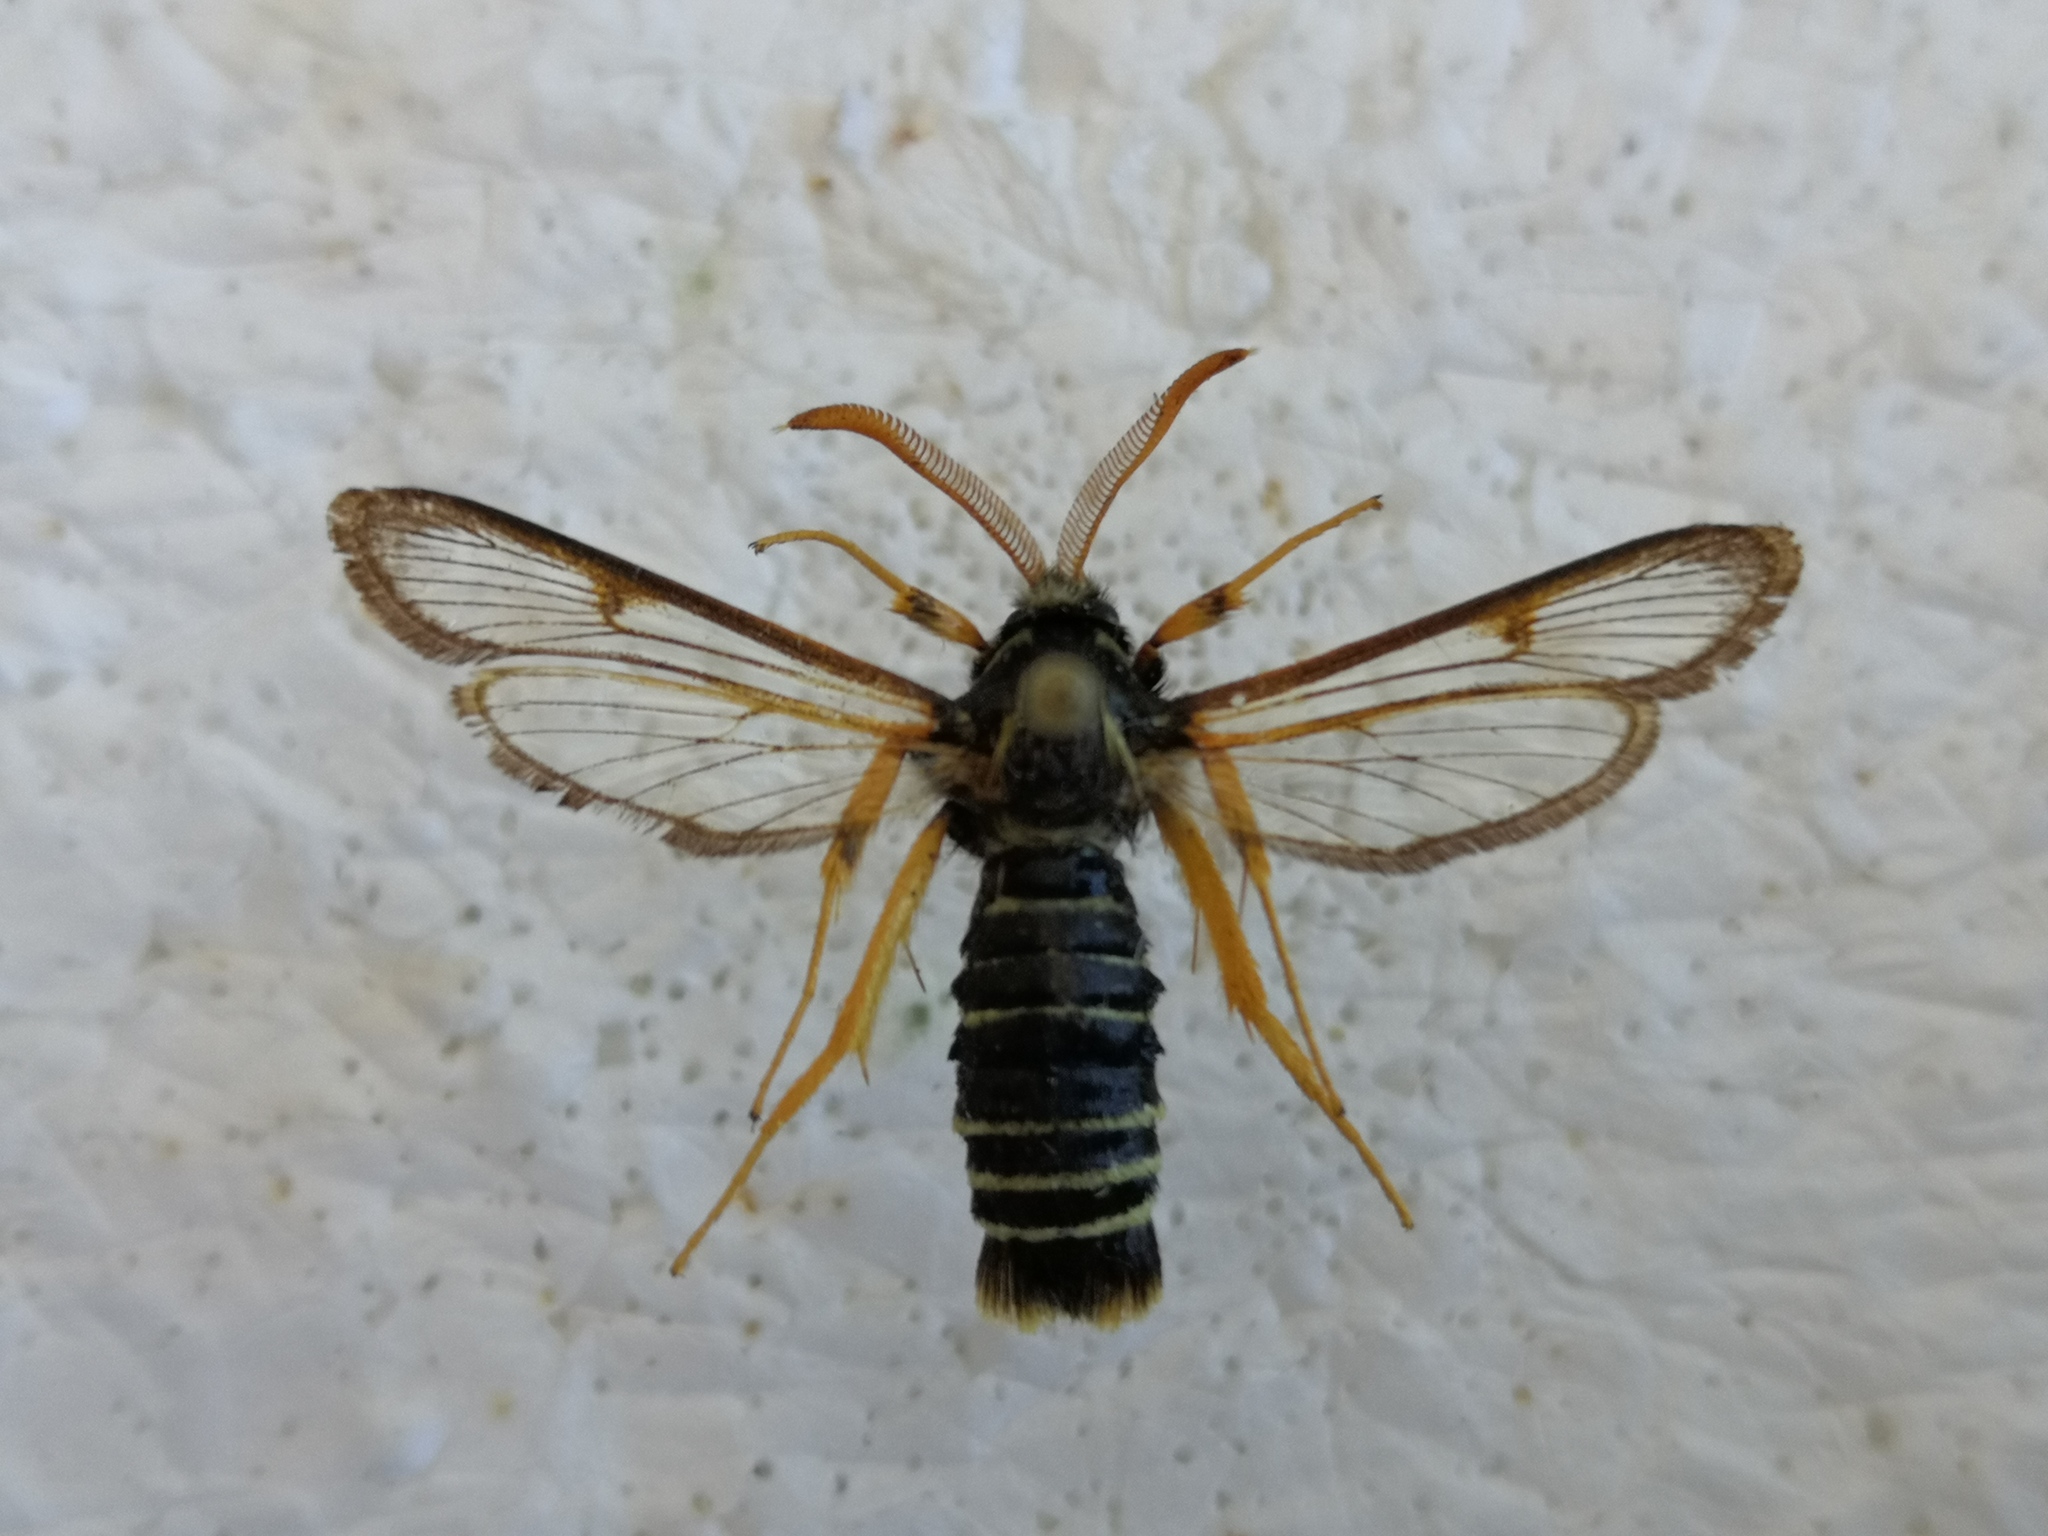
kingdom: Animalia
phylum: Arthropoda
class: Insecta
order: Lepidoptera
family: Sesiidae
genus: Eusphecia
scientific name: Eusphecia melanocephala
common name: Aspen clearwing
